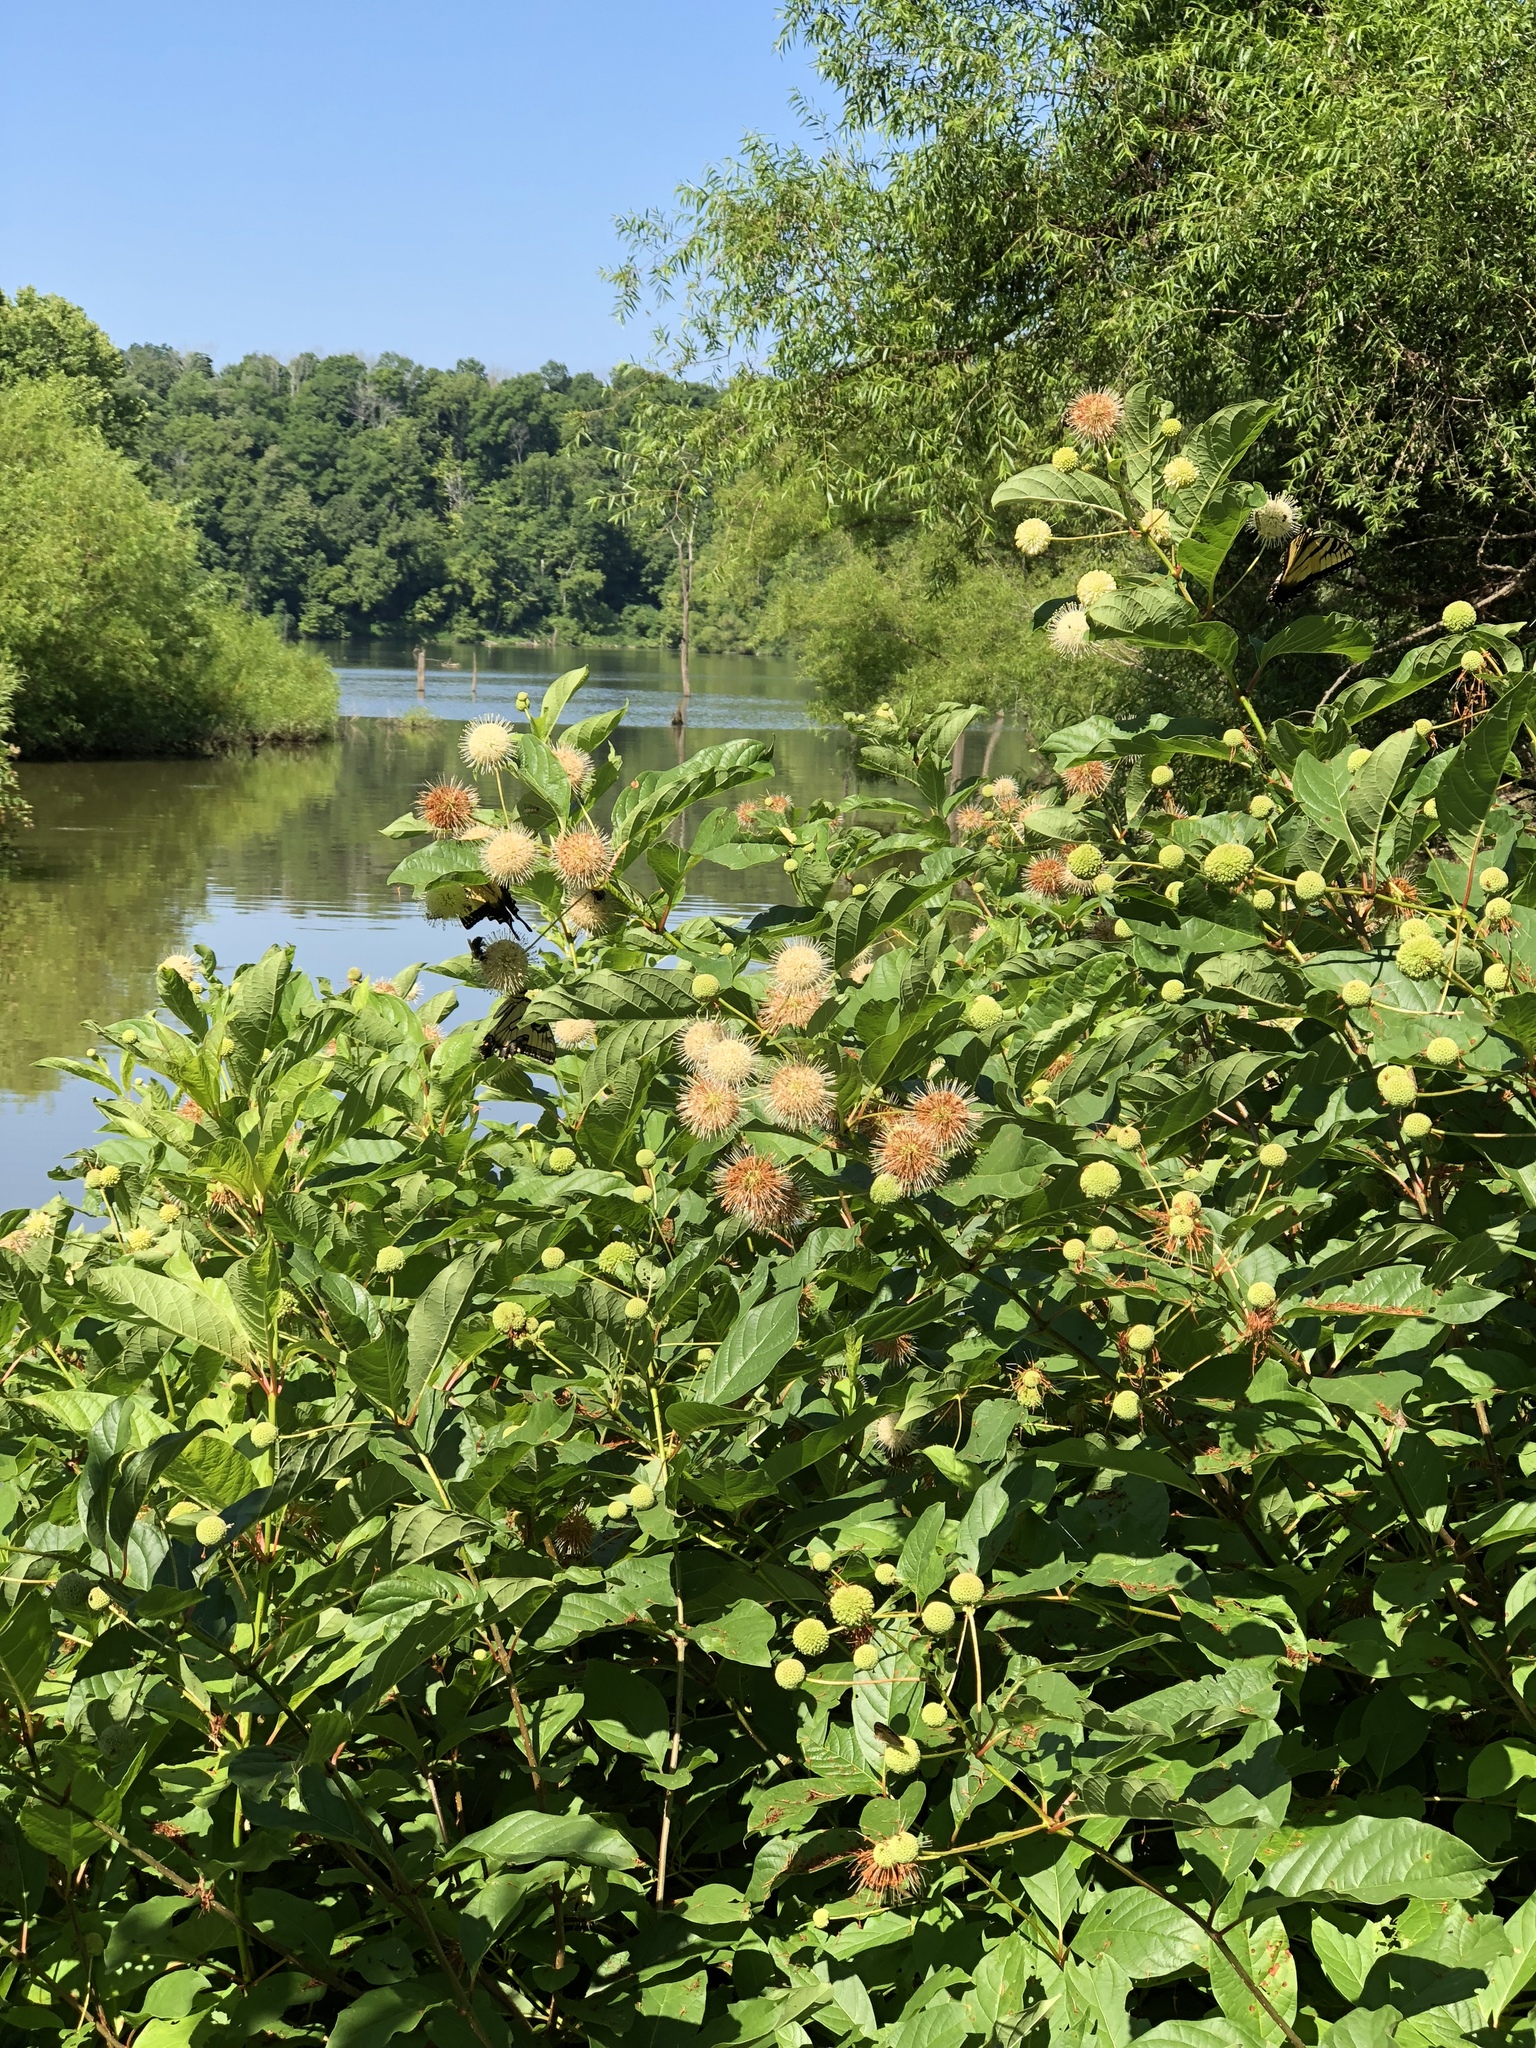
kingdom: Plantae
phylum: Tracheophyta
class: Magnoliopsida
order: Gentianales
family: Rubiaceae
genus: Cephalanthus
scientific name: Cephalanthus occidentalis
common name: Button-willow
